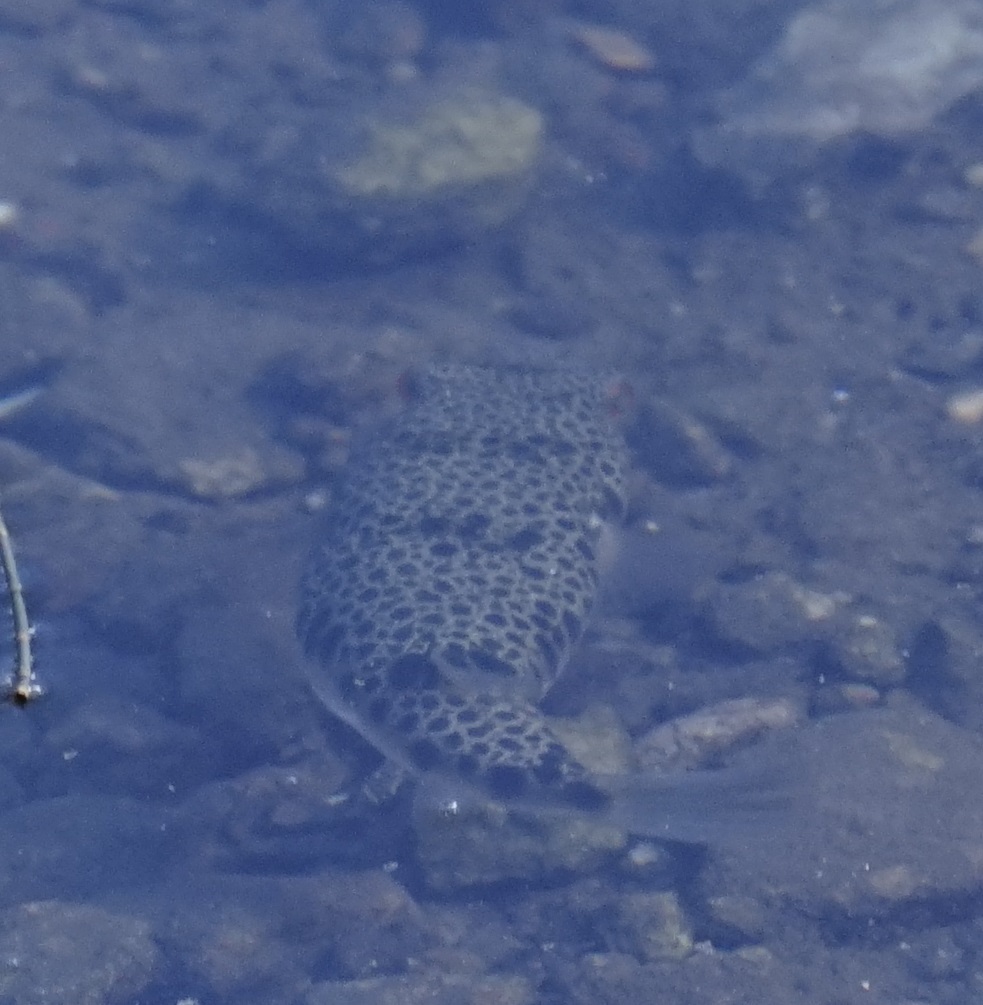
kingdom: Animalia
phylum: Chordata
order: Tetraodontiformes
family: Tetraodontidae
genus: Tetractenos
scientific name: Tetractenos hamiltoni
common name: Common toadfish
